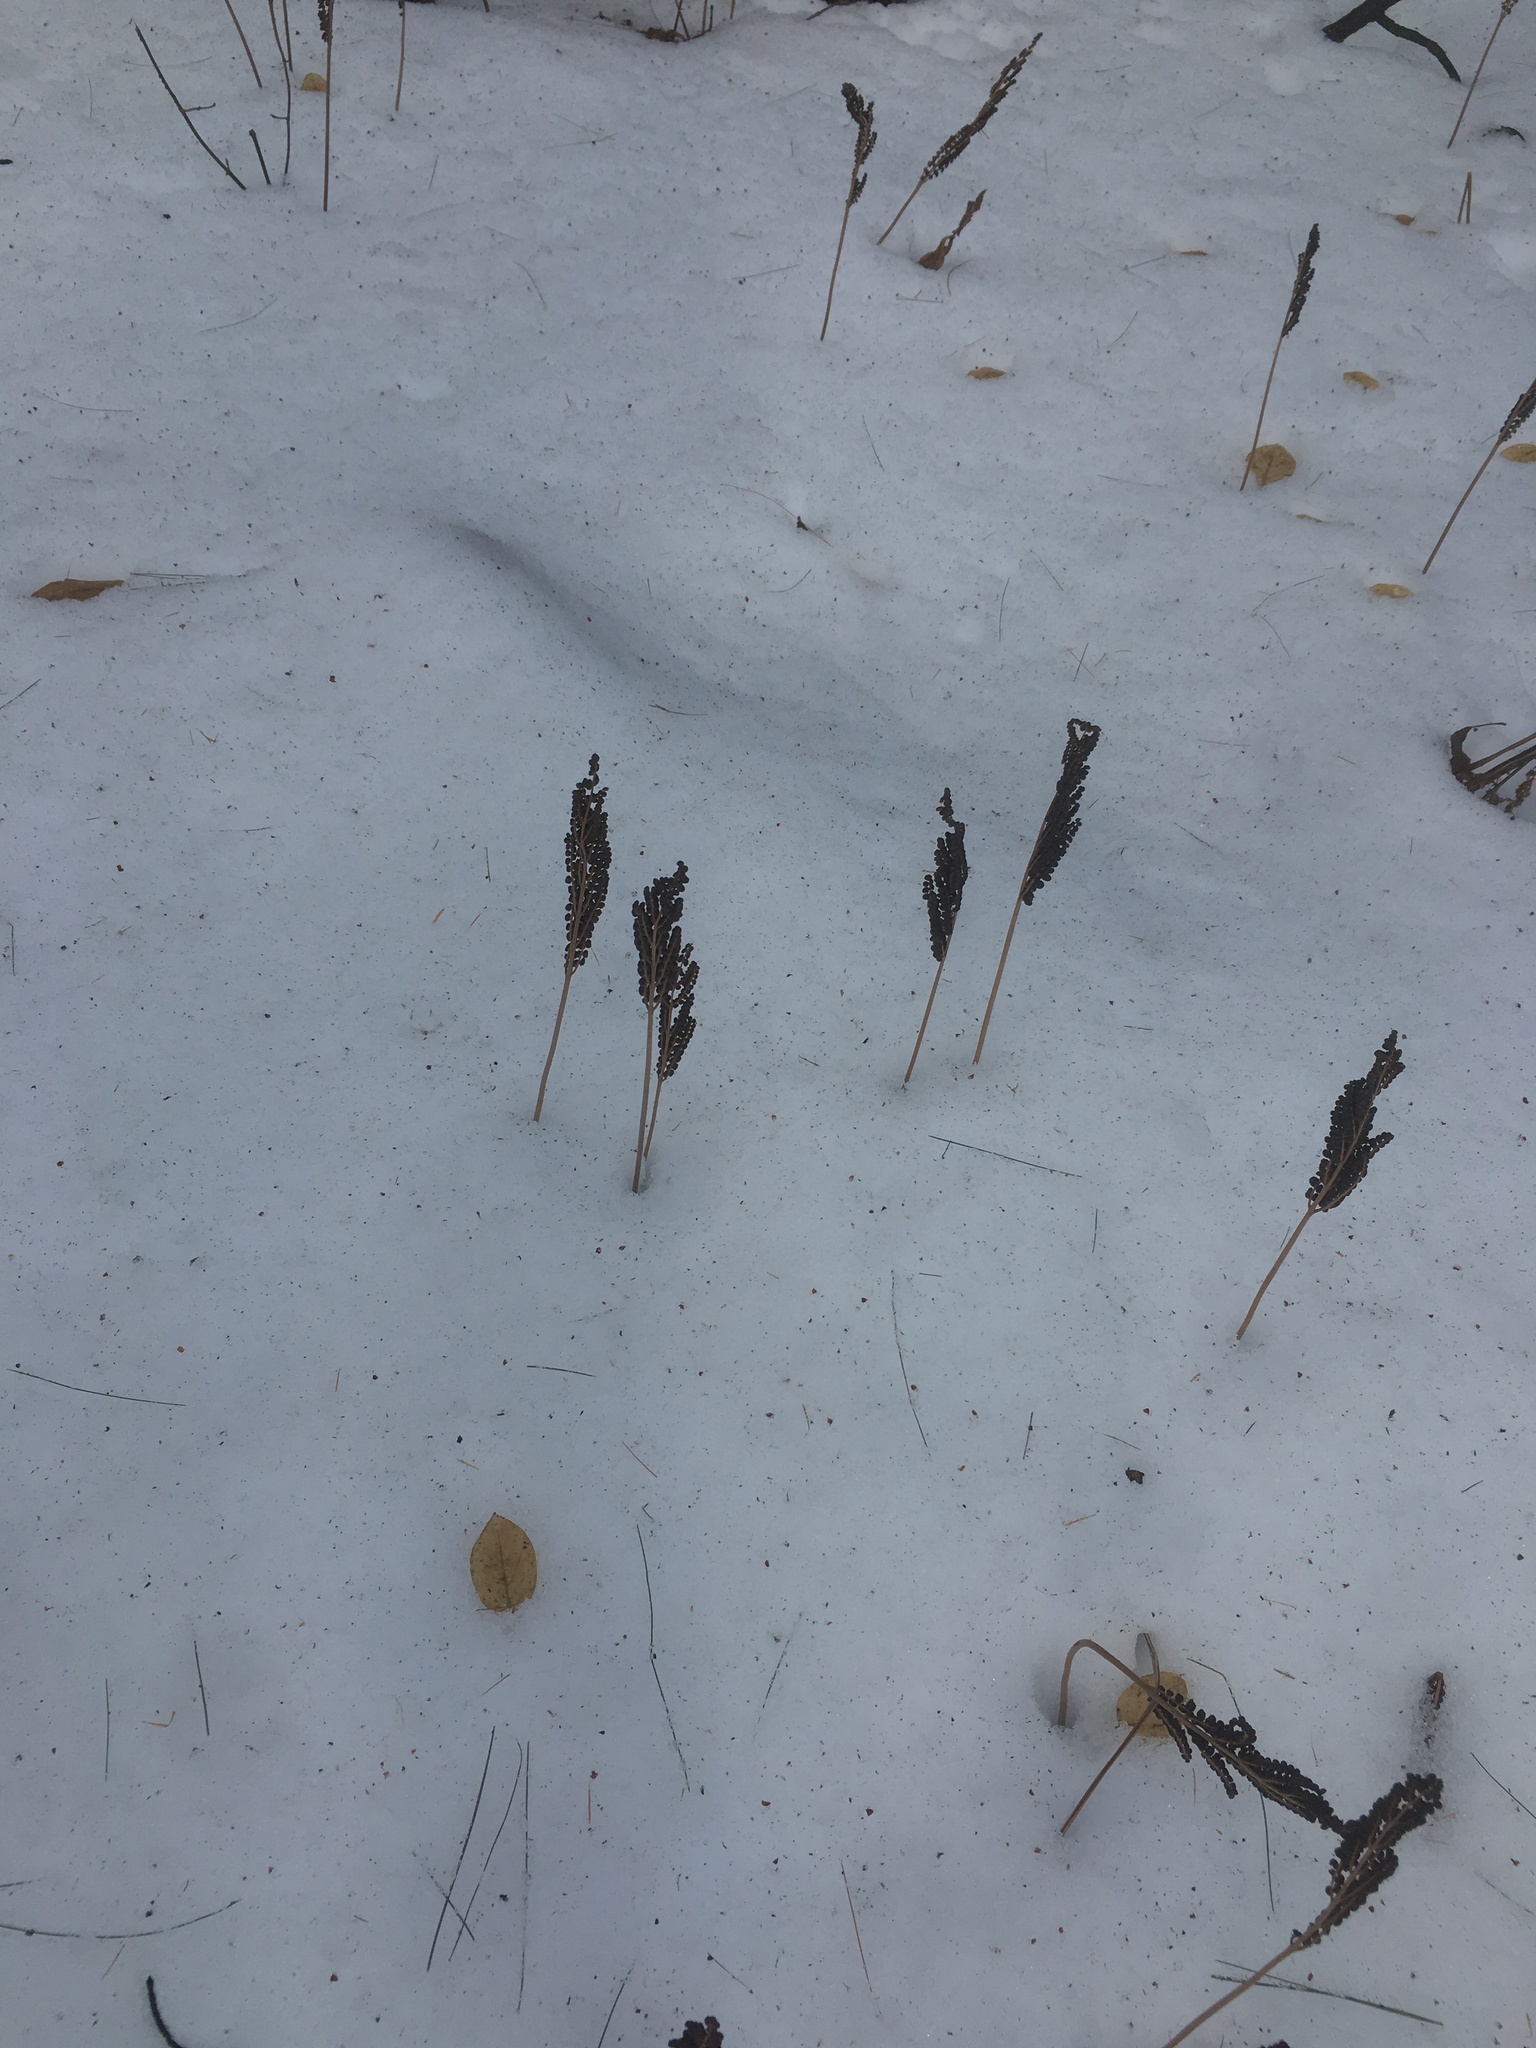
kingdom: Plantae
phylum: Tracheophyta
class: Polypodiopsida
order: Polypodiales
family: Onocleaceae
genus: Onoclea
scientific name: Onoclea sensibilis
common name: Sensitive fern
